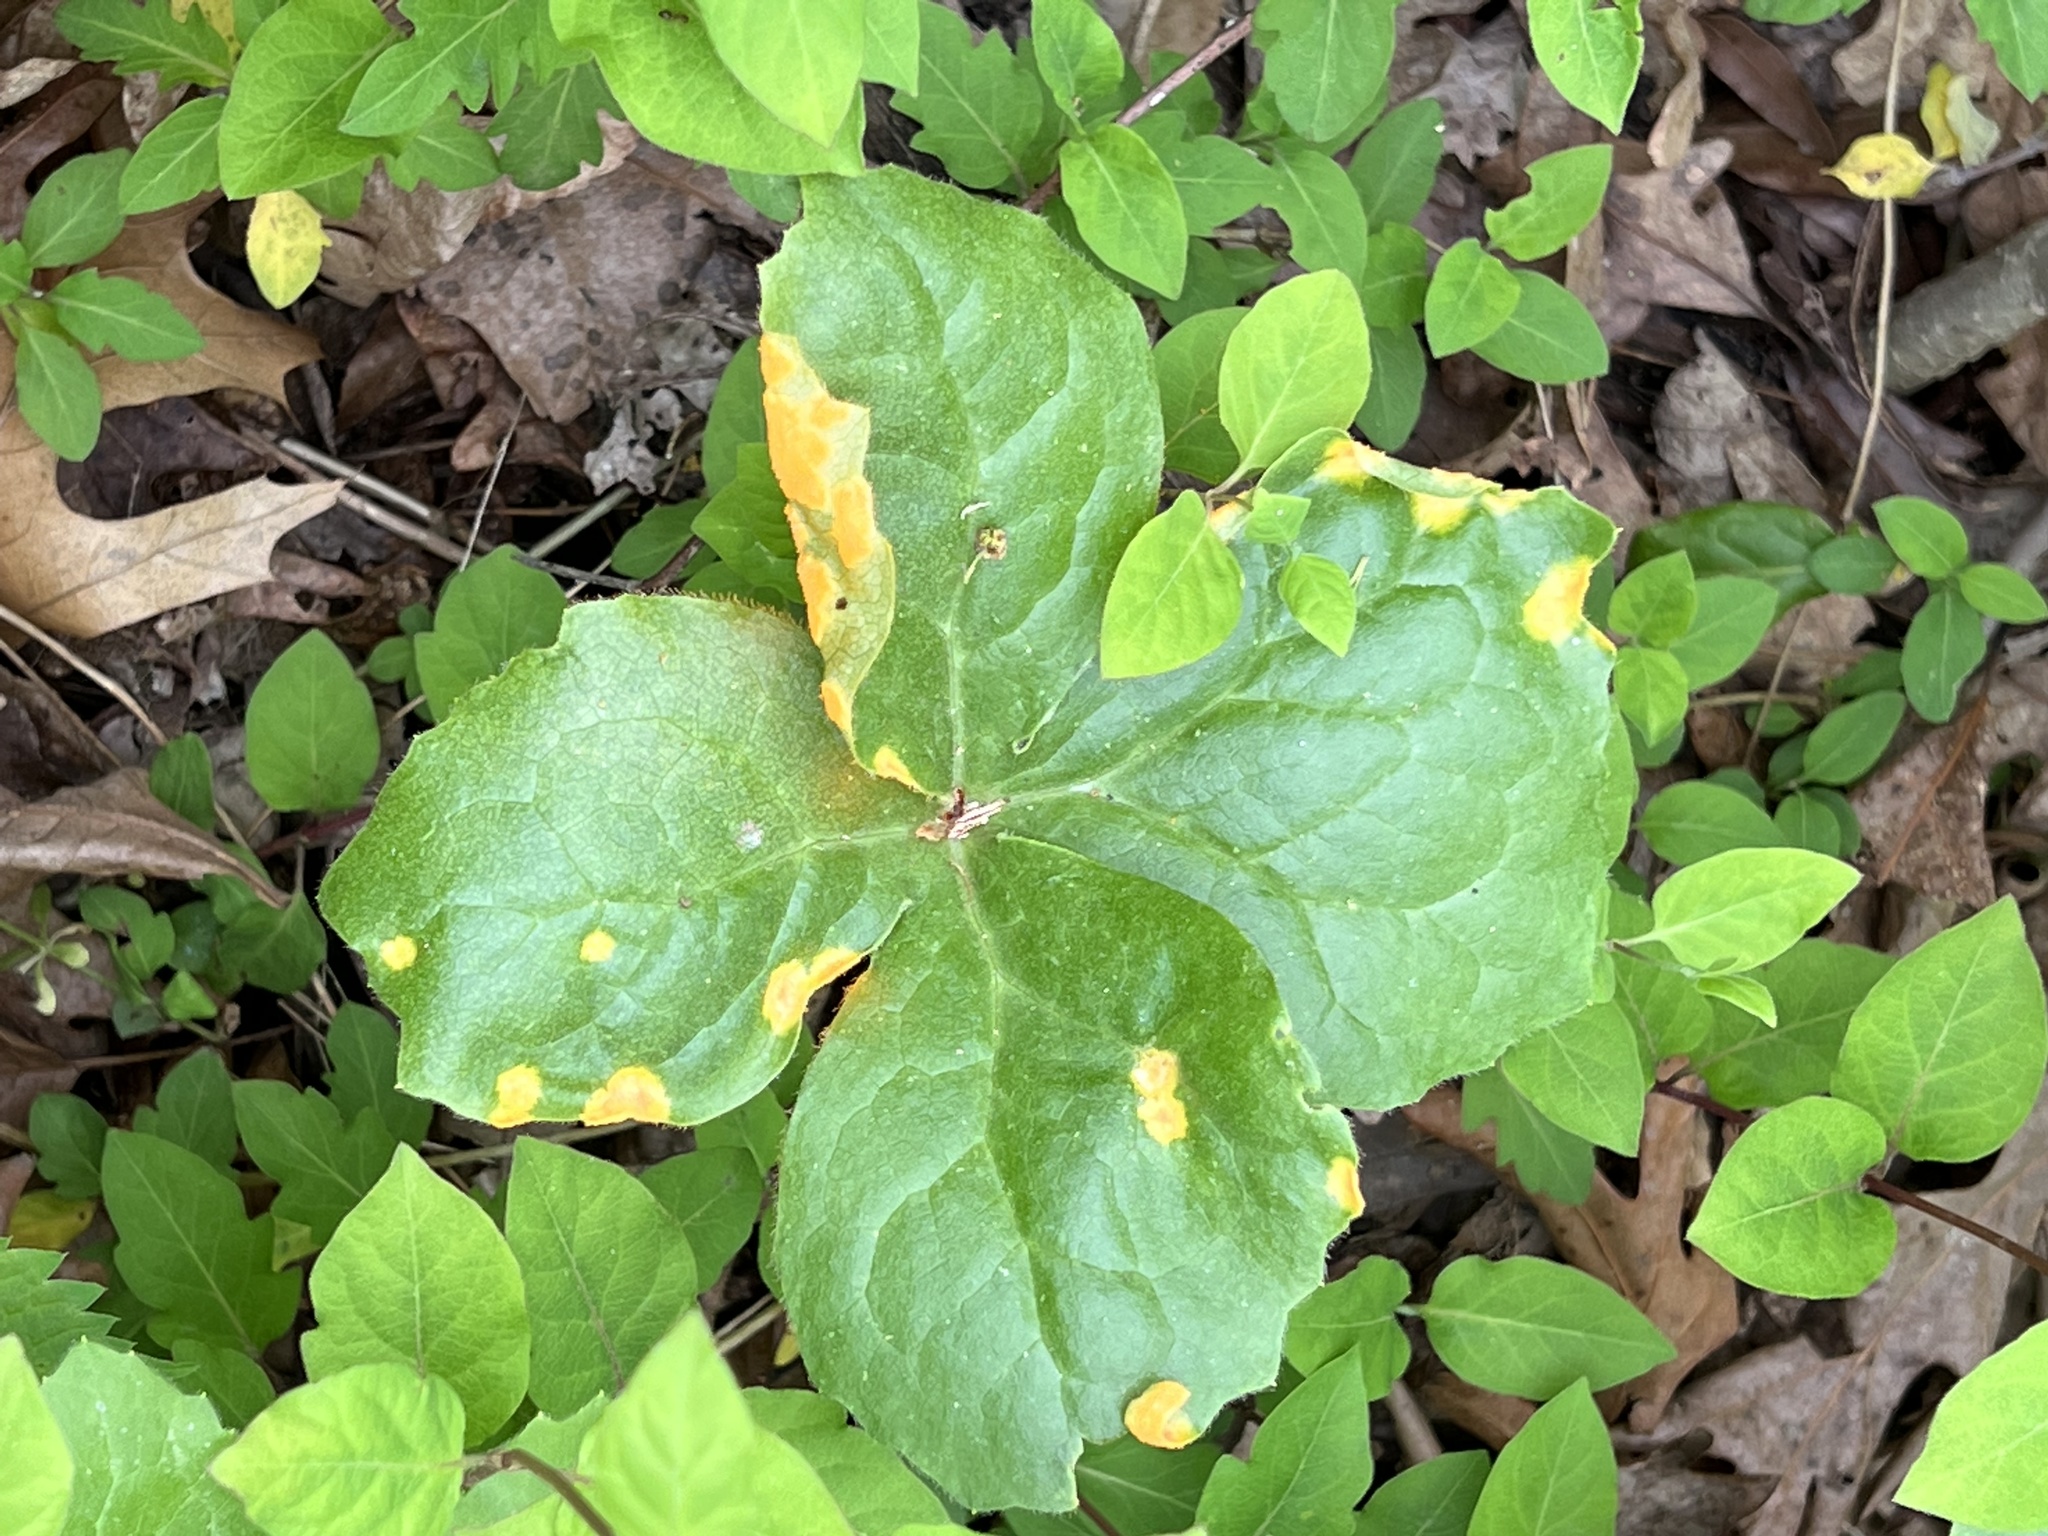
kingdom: Fungi
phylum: Basidiomycota
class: Pucciniomycetes
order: Pucciniales
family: Pucciniaceae
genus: Puccinia
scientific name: Puccinia podophylli
